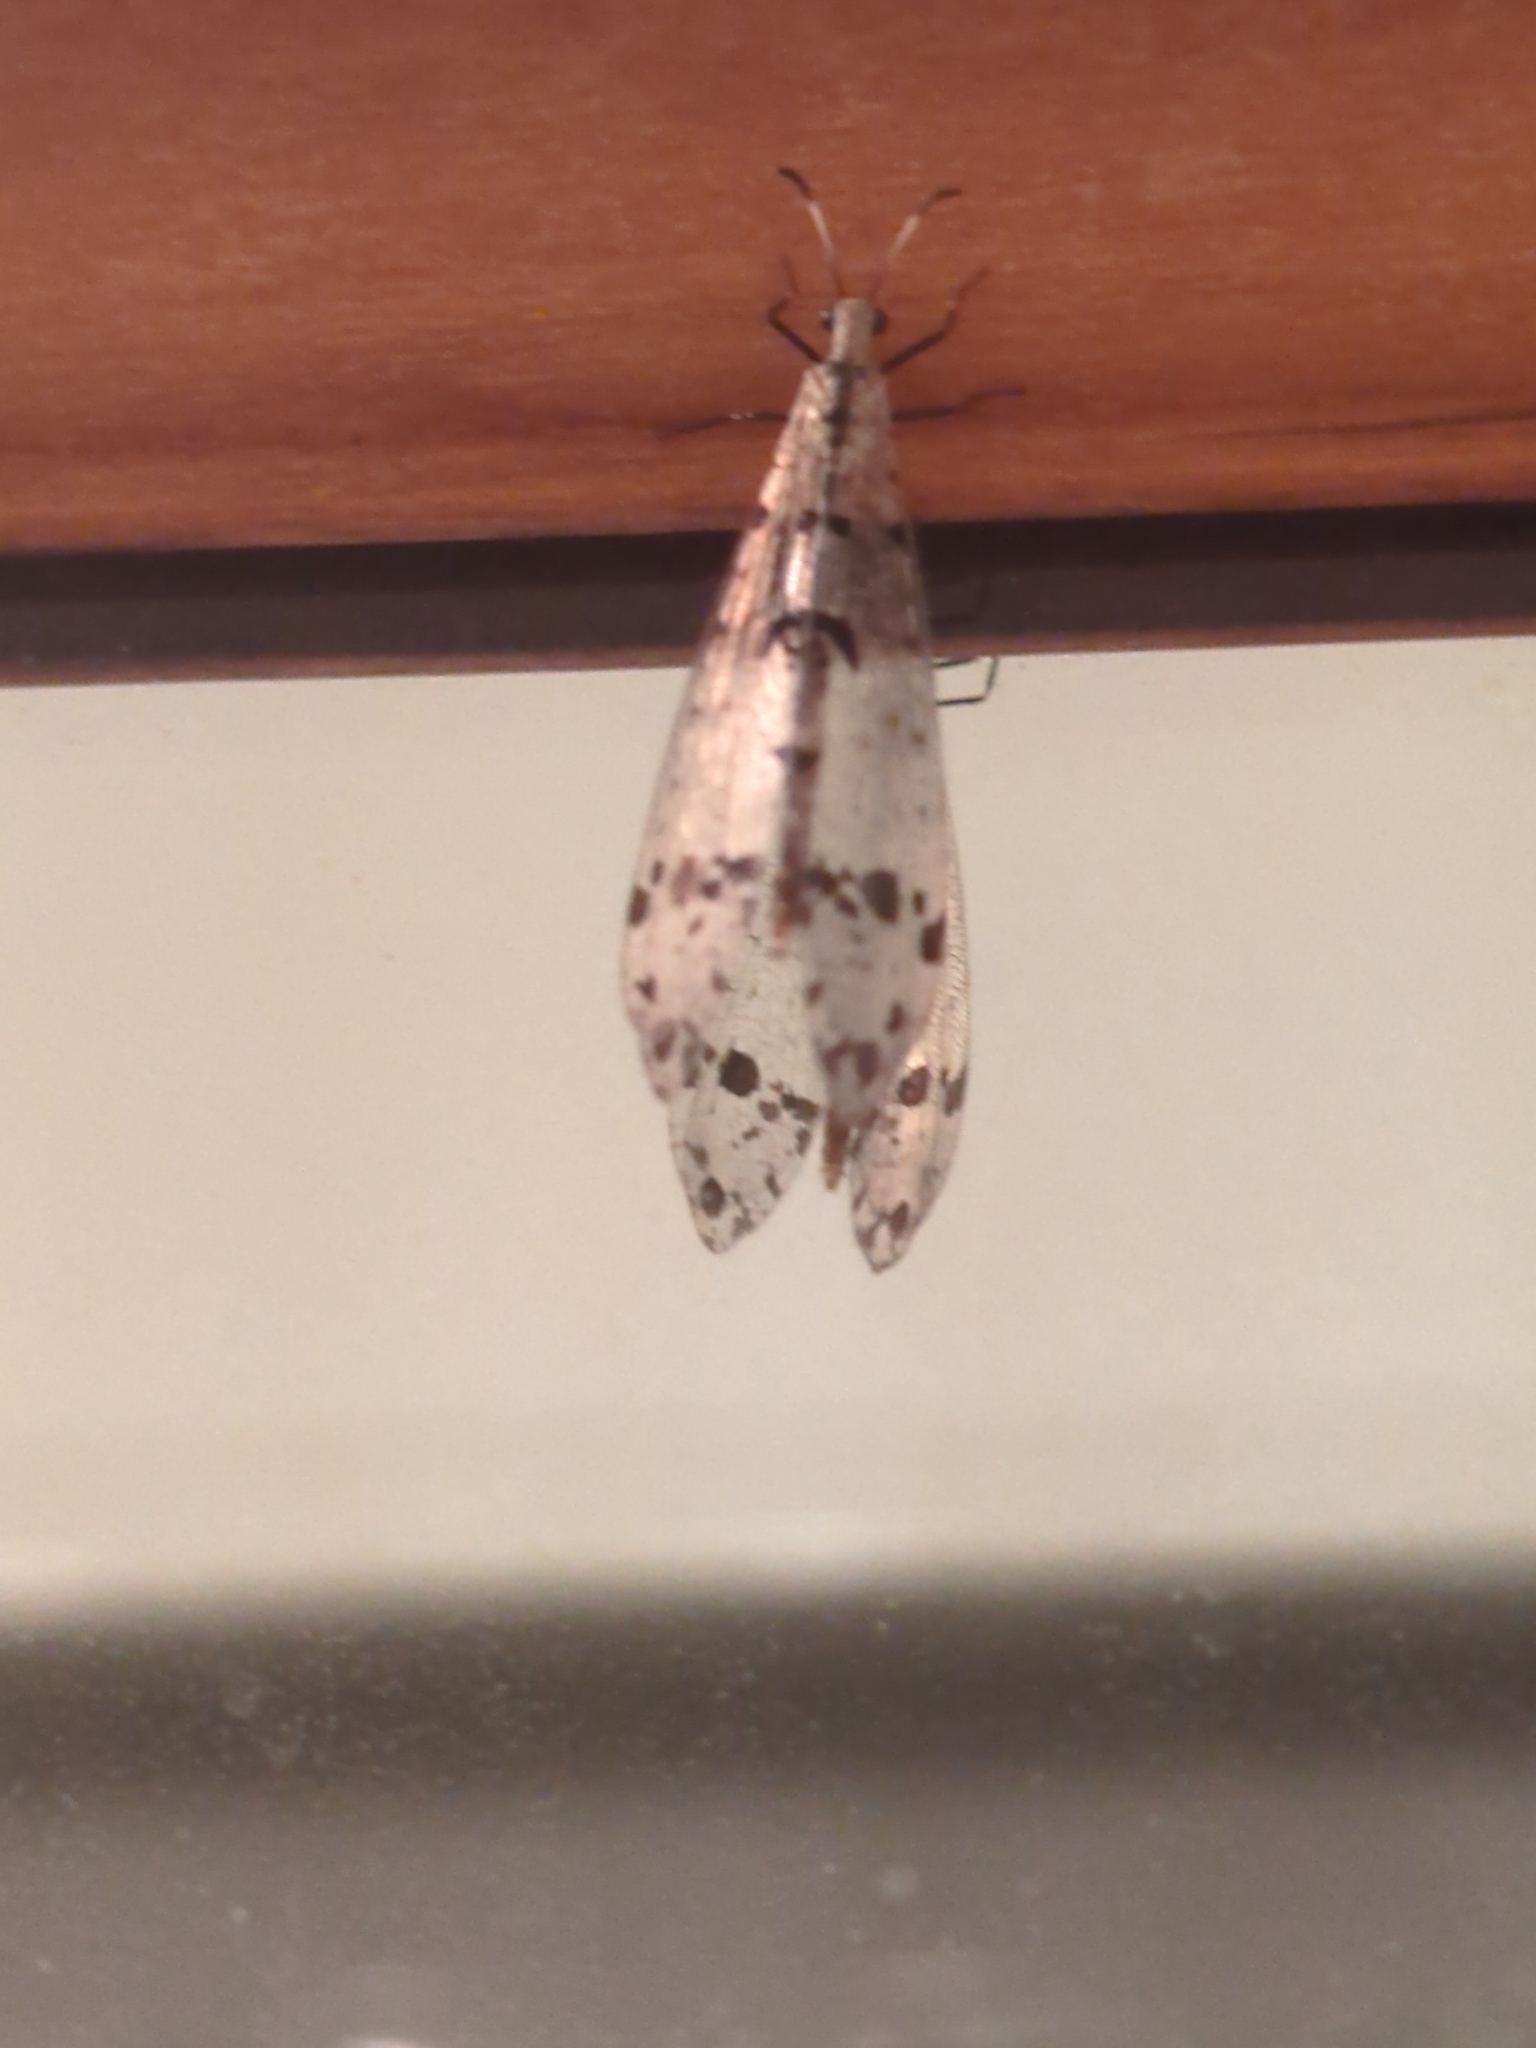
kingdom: Animalia
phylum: Arthropoda
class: Insecta
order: Neuroptera
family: Myrmeleontidae
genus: Dendroleon
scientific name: Dendroleon obsoletus
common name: Eastern spotted-winged antlion
